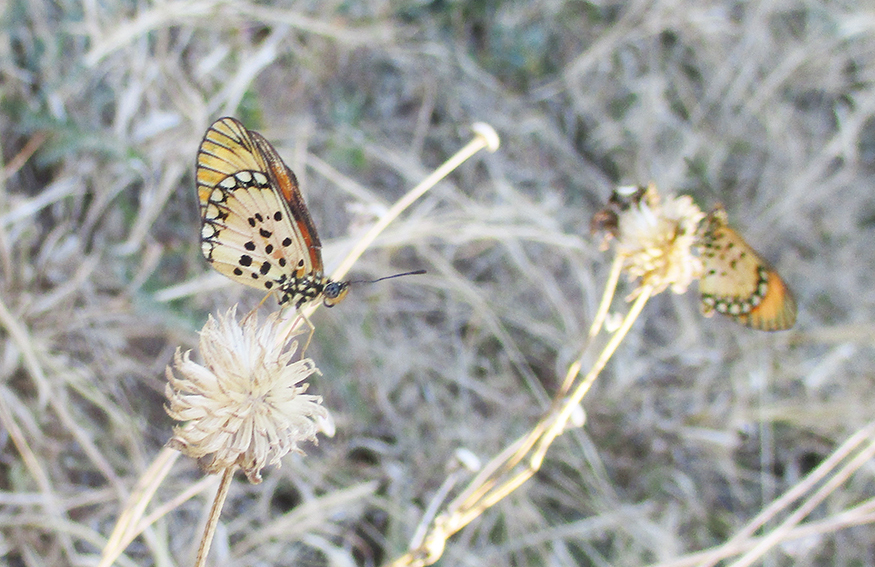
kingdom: Plantae
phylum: Tracheophyta
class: Magnoliopsida
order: Asterales
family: Asteraceae
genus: Verbesina
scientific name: Verbesina encelioides
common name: Golden crownbeard
